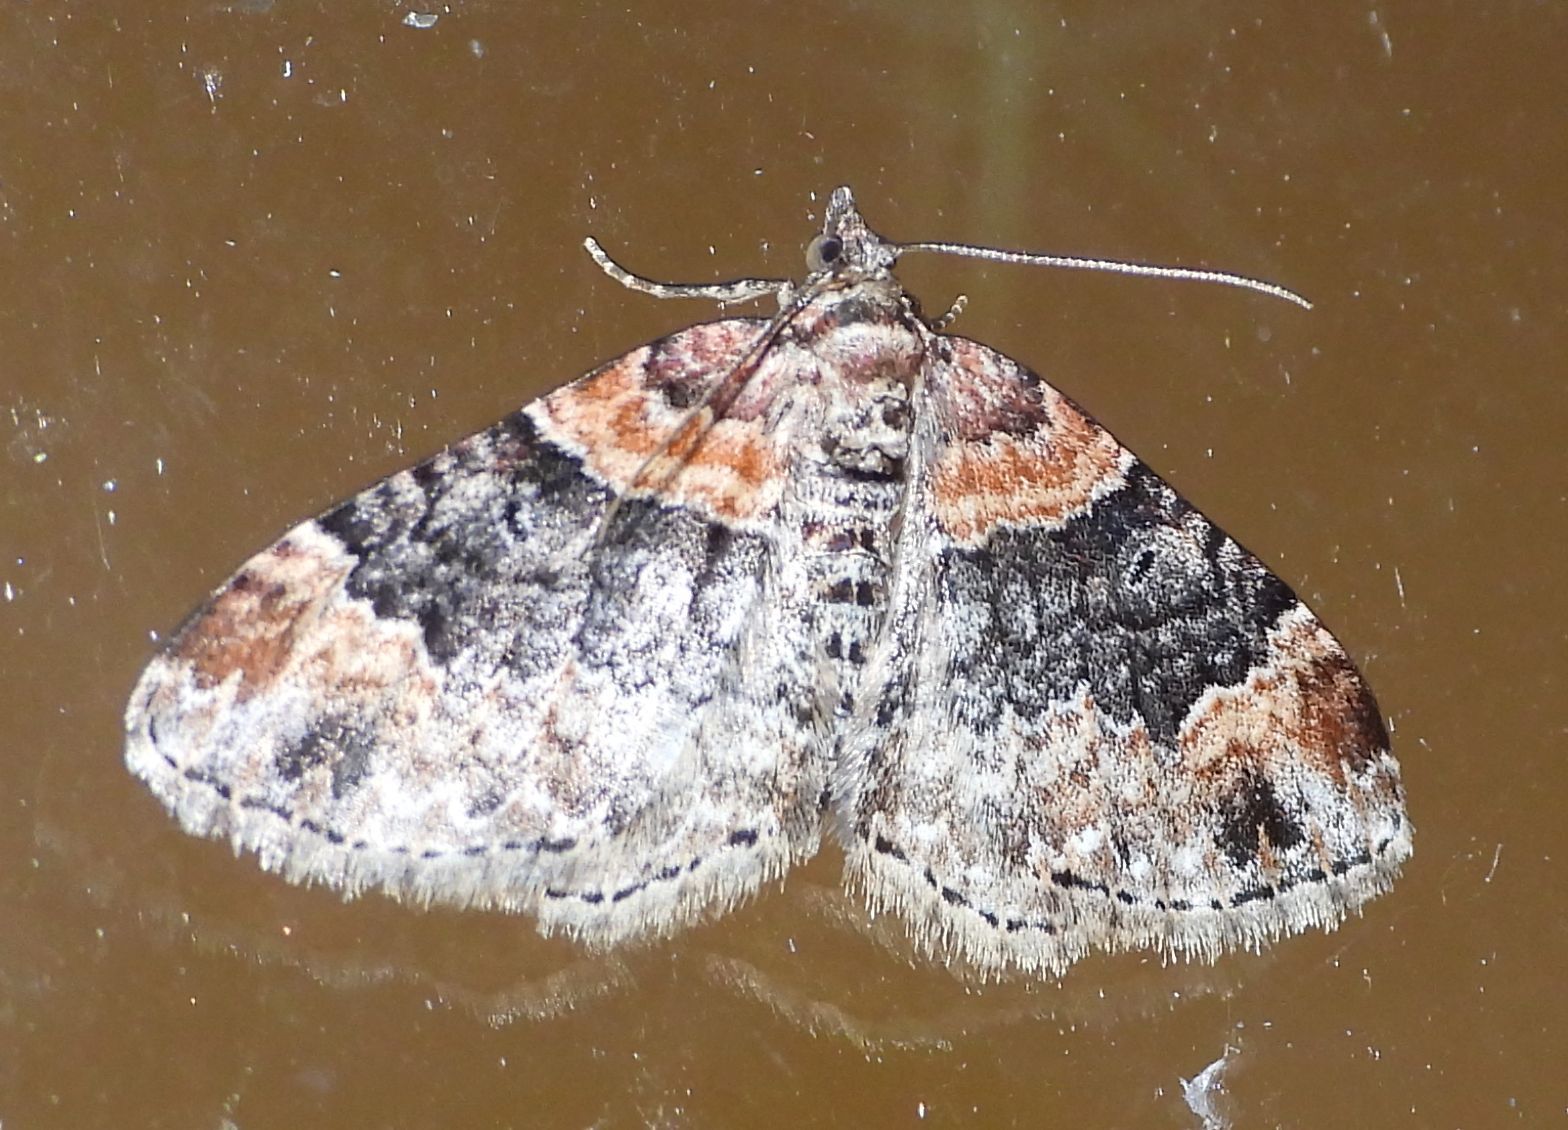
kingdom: Animalia
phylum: Arthropoda
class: Insecta
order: Lepidoptera
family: Geometridae
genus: Xanthorhoe
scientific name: Xanthorhoe ferrugata
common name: Dark-barred twin-spot carpet
